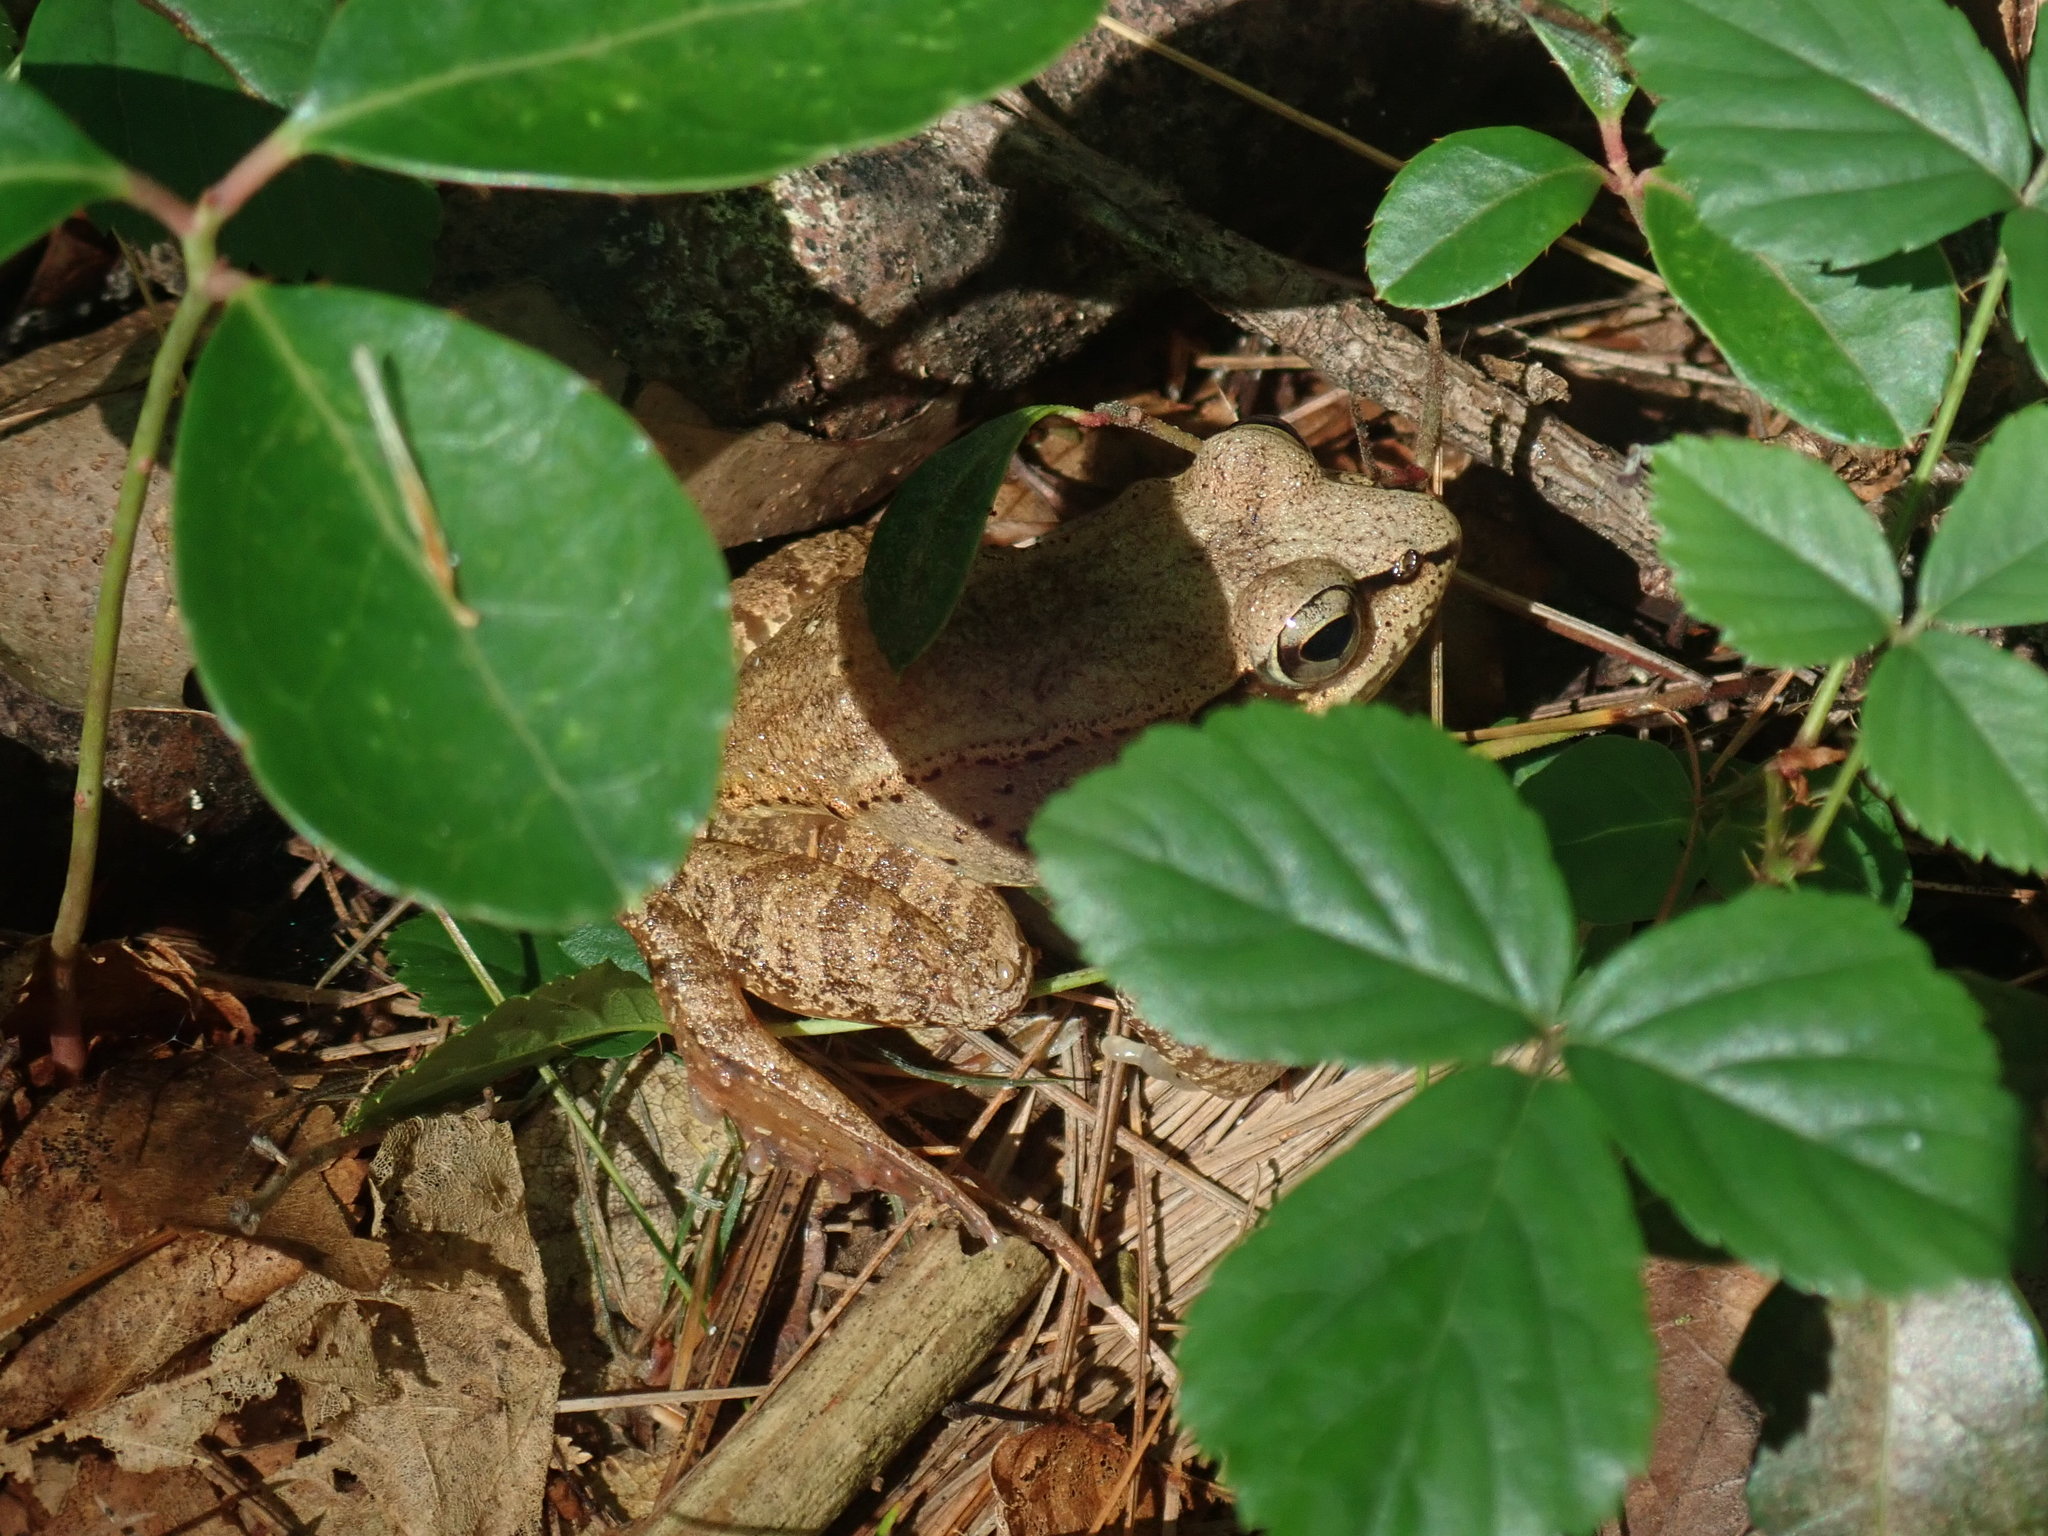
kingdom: Animalia
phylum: Chordata
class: Amphibia
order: Anura
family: Ranidae
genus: Lithobates
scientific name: Lithobates sylvaticus
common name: Wood frog
